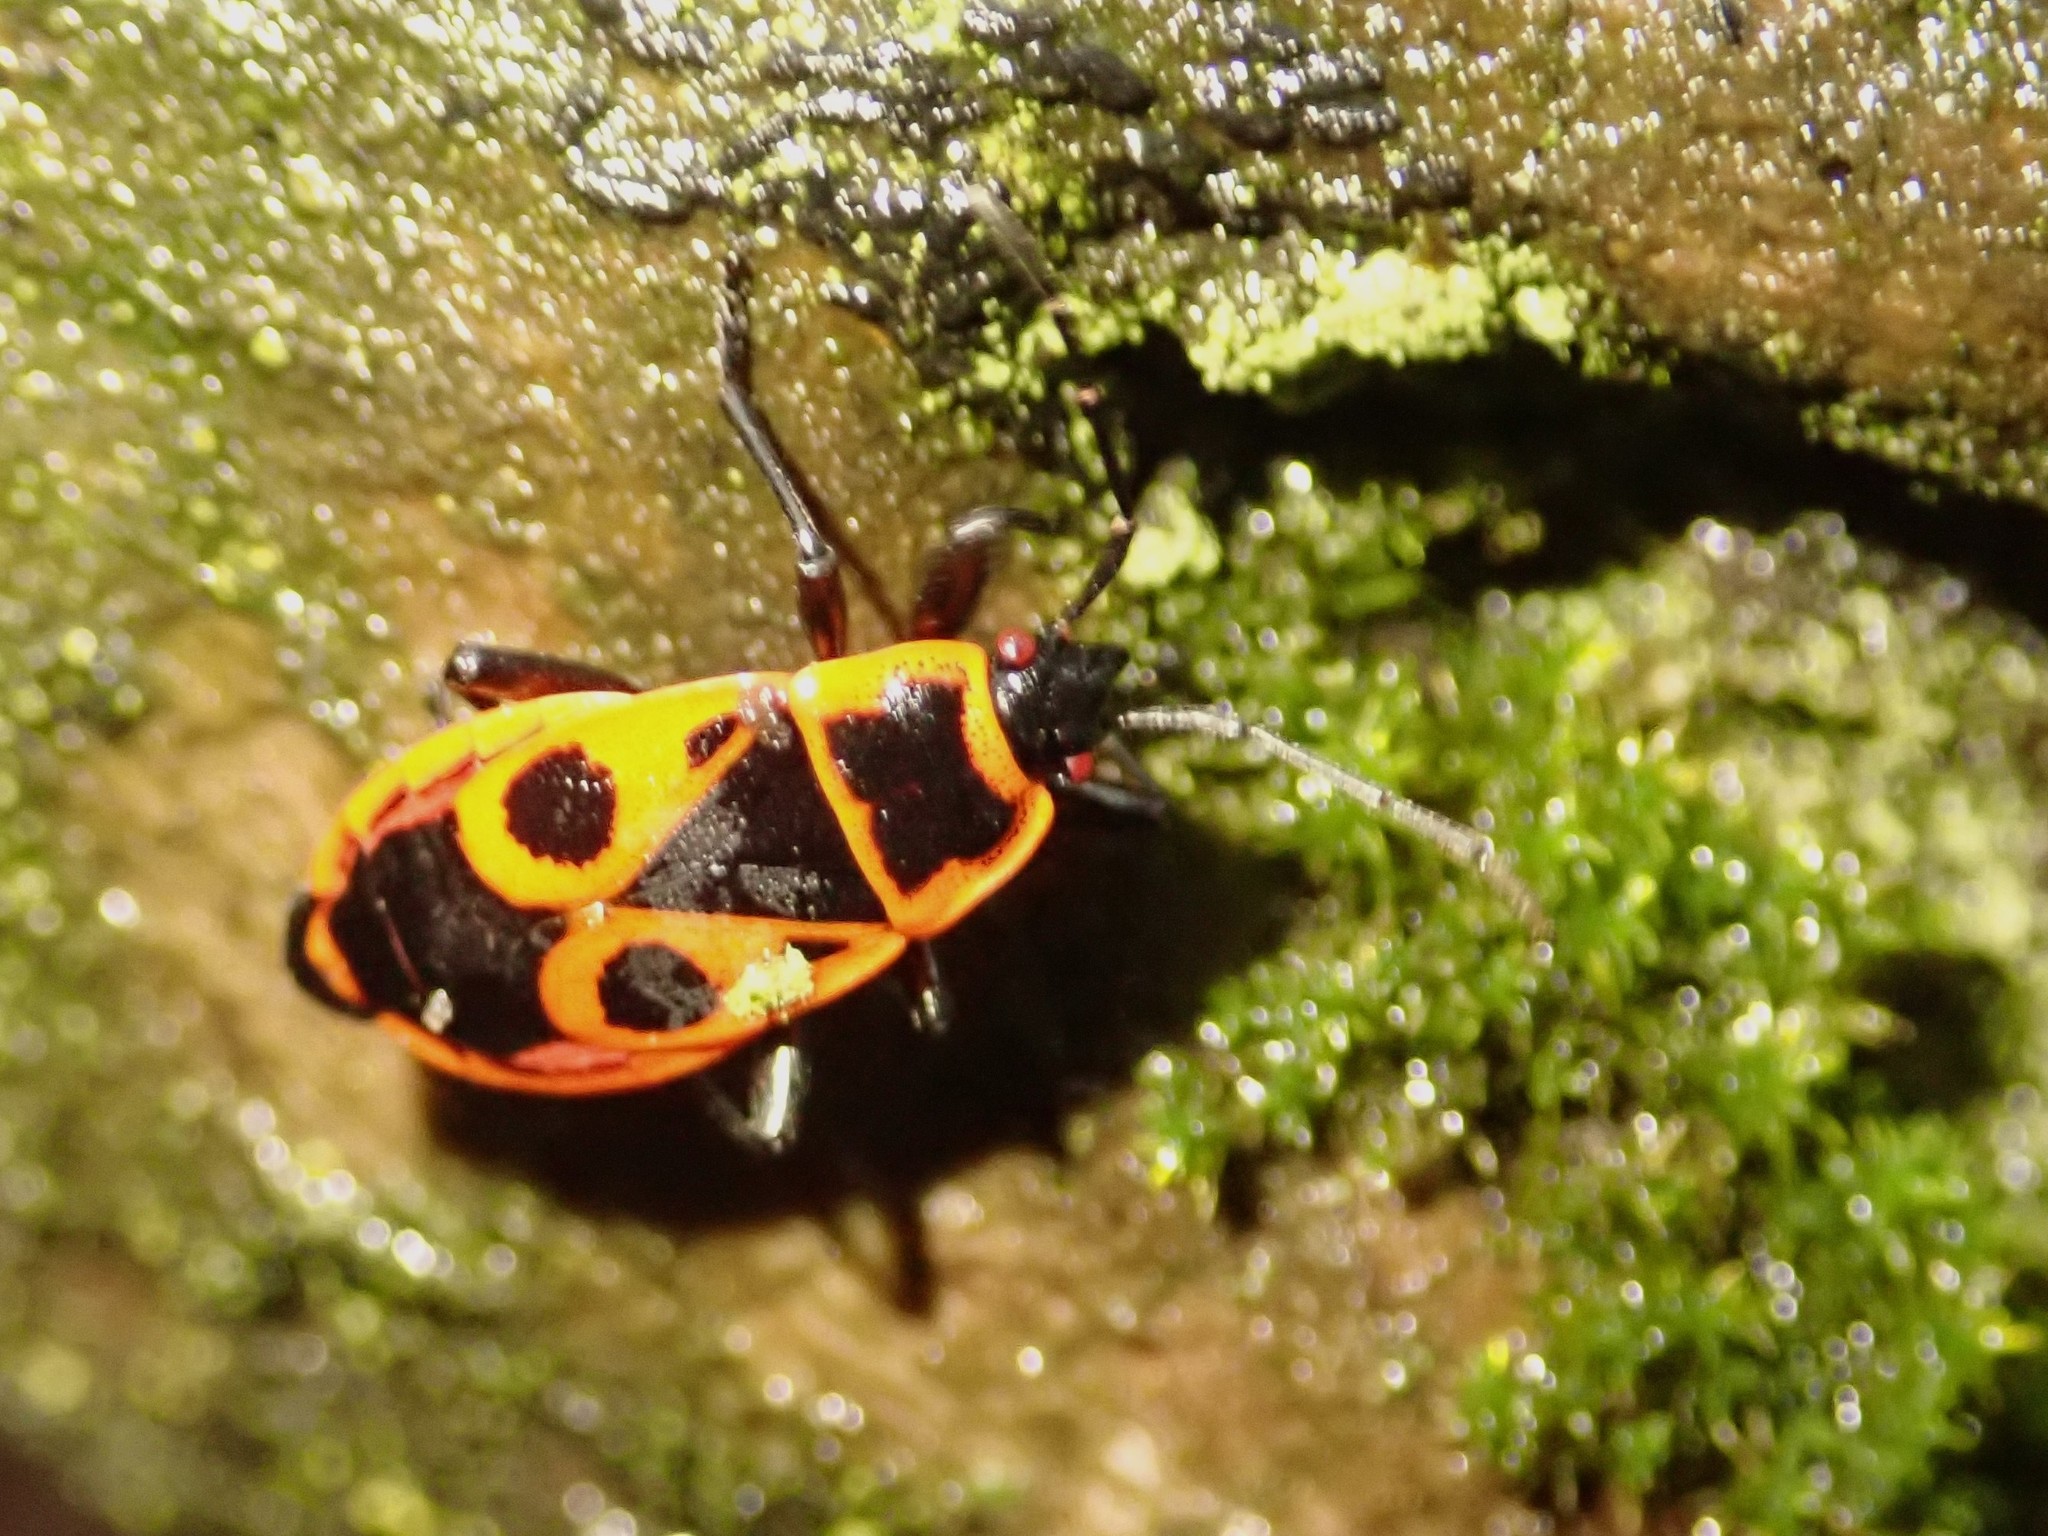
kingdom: Animalia
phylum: Arthropoda
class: Insecta
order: Hemiptera
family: Pyrrhocoridae
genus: Pyrrhocoris
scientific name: Pyrrhocoris apterus
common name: Firebug
